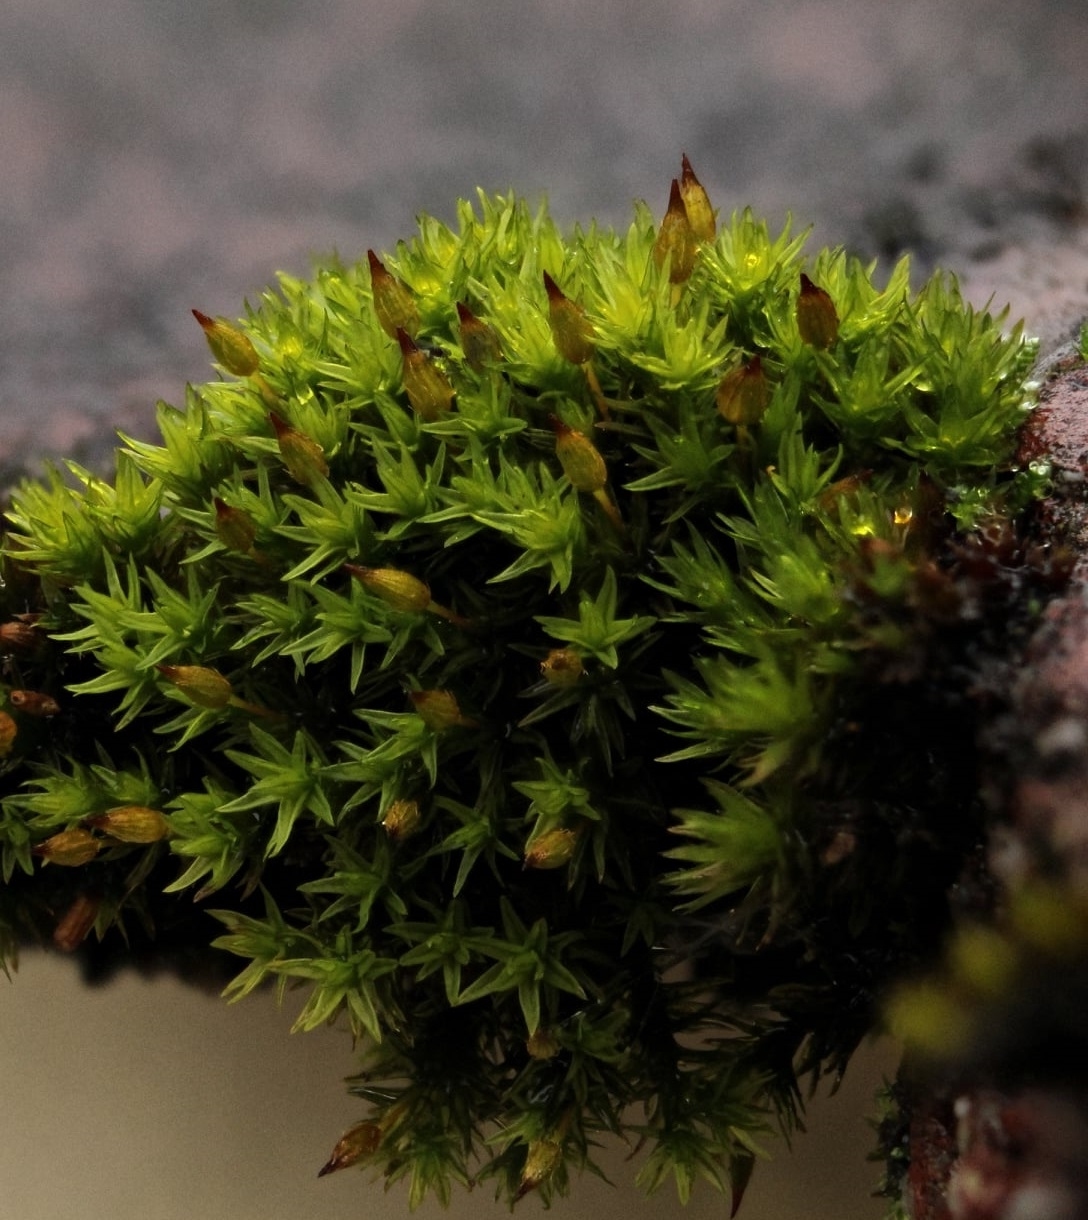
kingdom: Plantae
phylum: Bryophyta
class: Bryopsida
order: Orthotrichales
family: Orthotrichaceae
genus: Orthotrichum
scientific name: Orthotrichum anomalum
